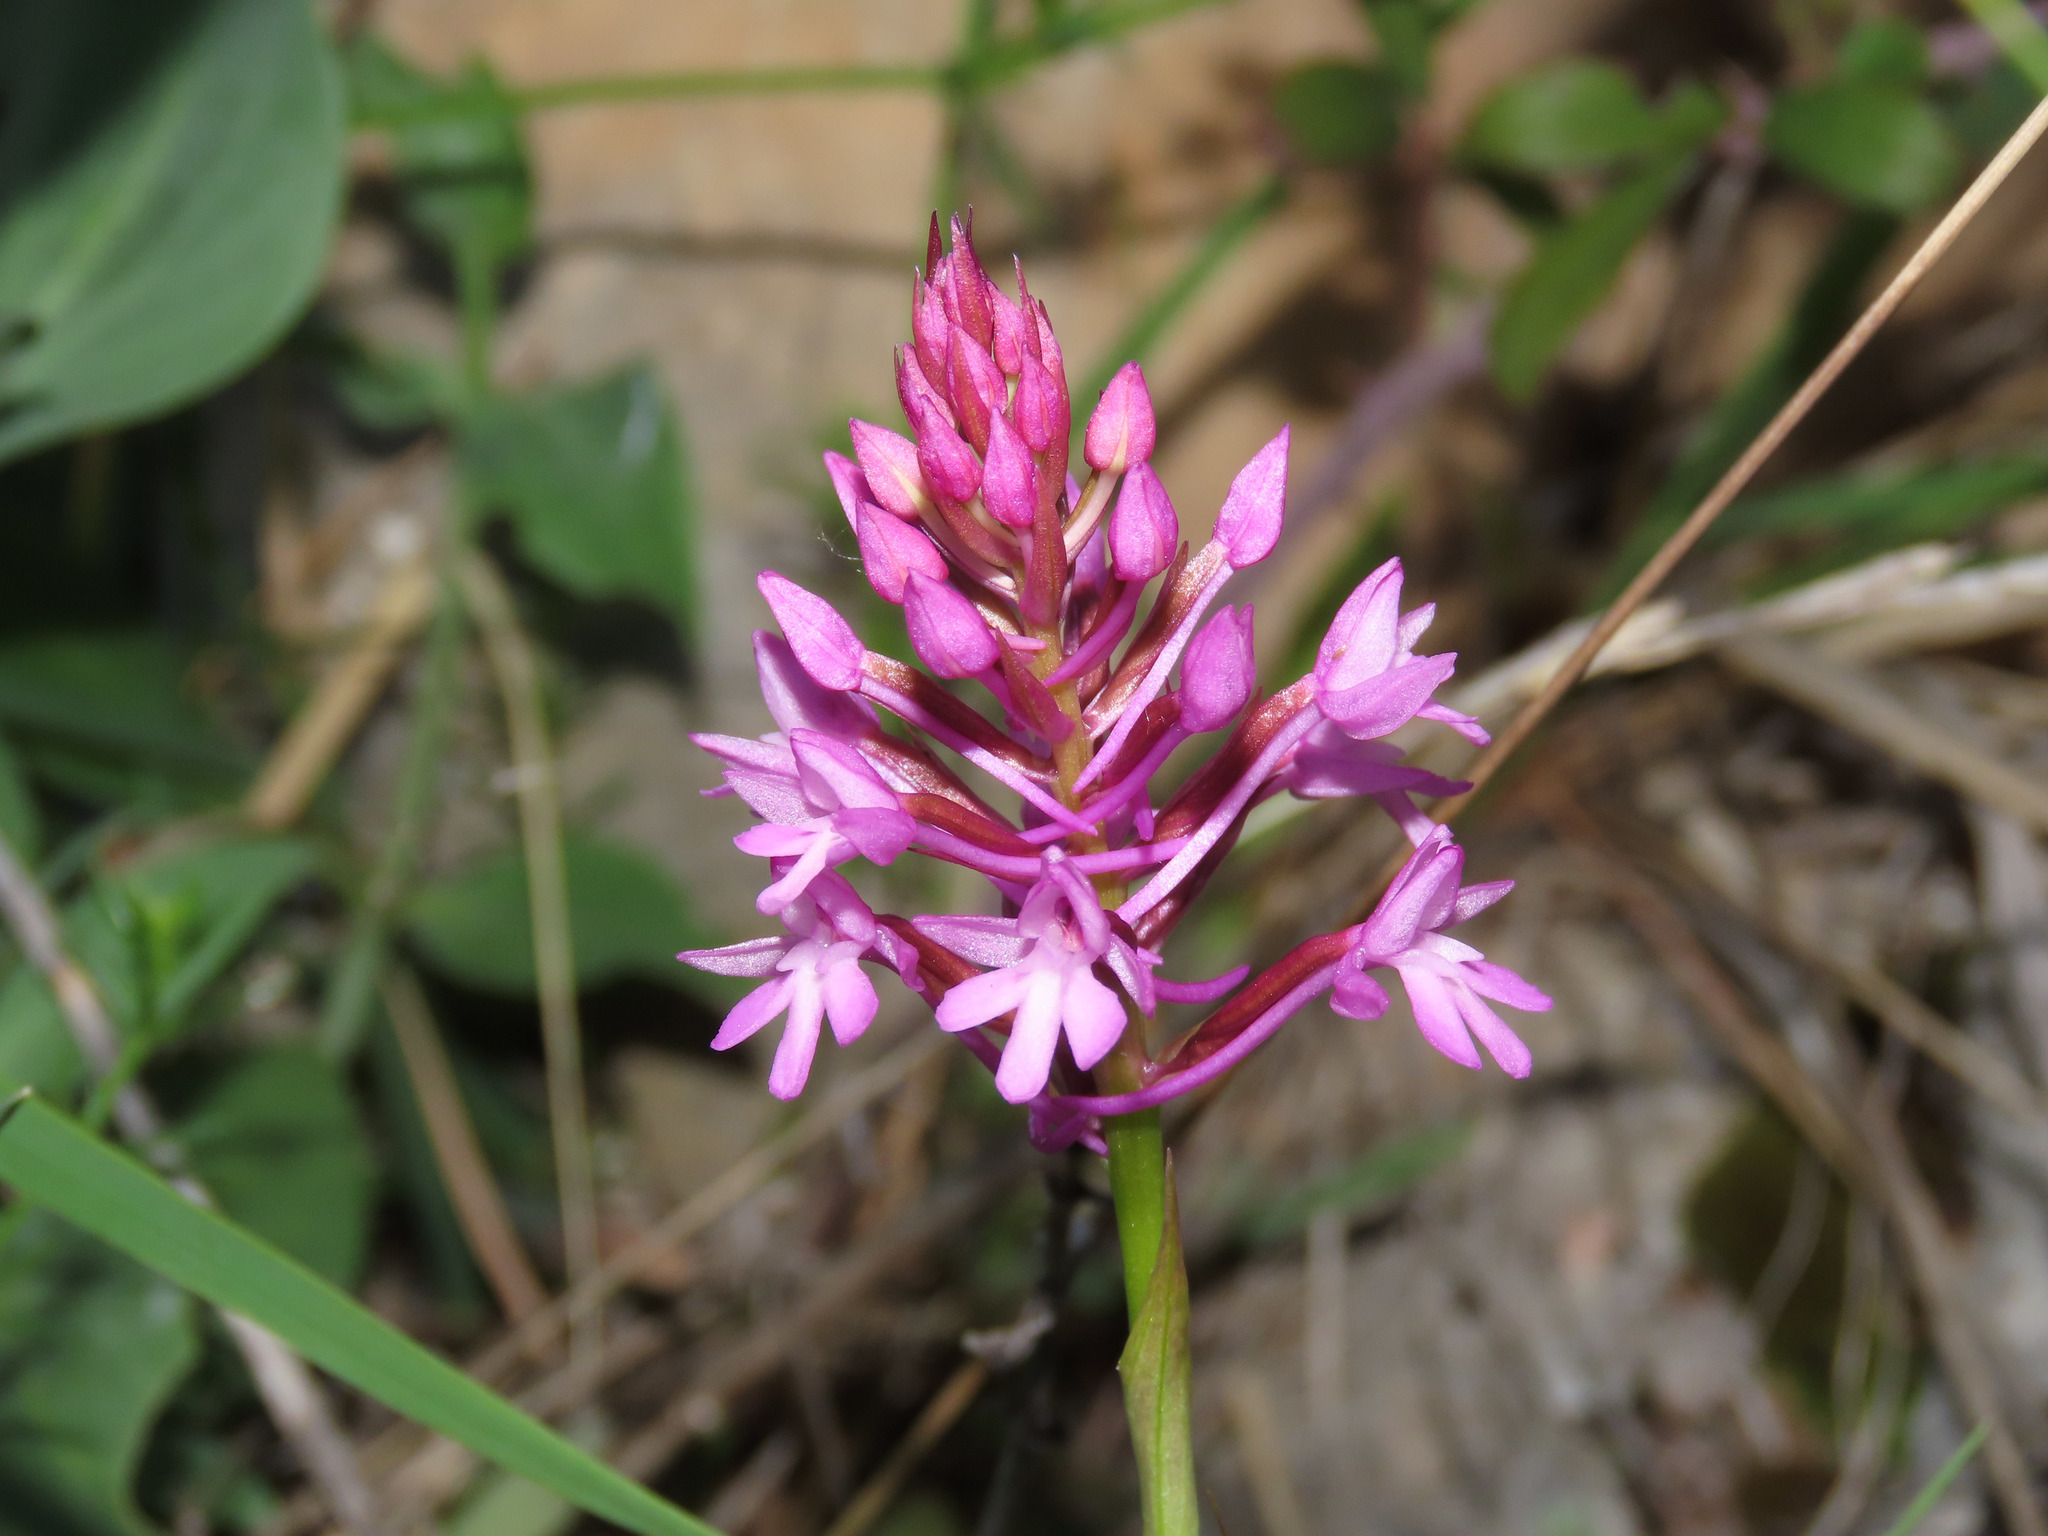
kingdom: Plantae
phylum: Tracheophyta
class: Liliopsida
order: Asparagales
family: Orchidaceae
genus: Anacamptis
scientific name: Anacamptis pyramidalis
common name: Pyramidal orchid
